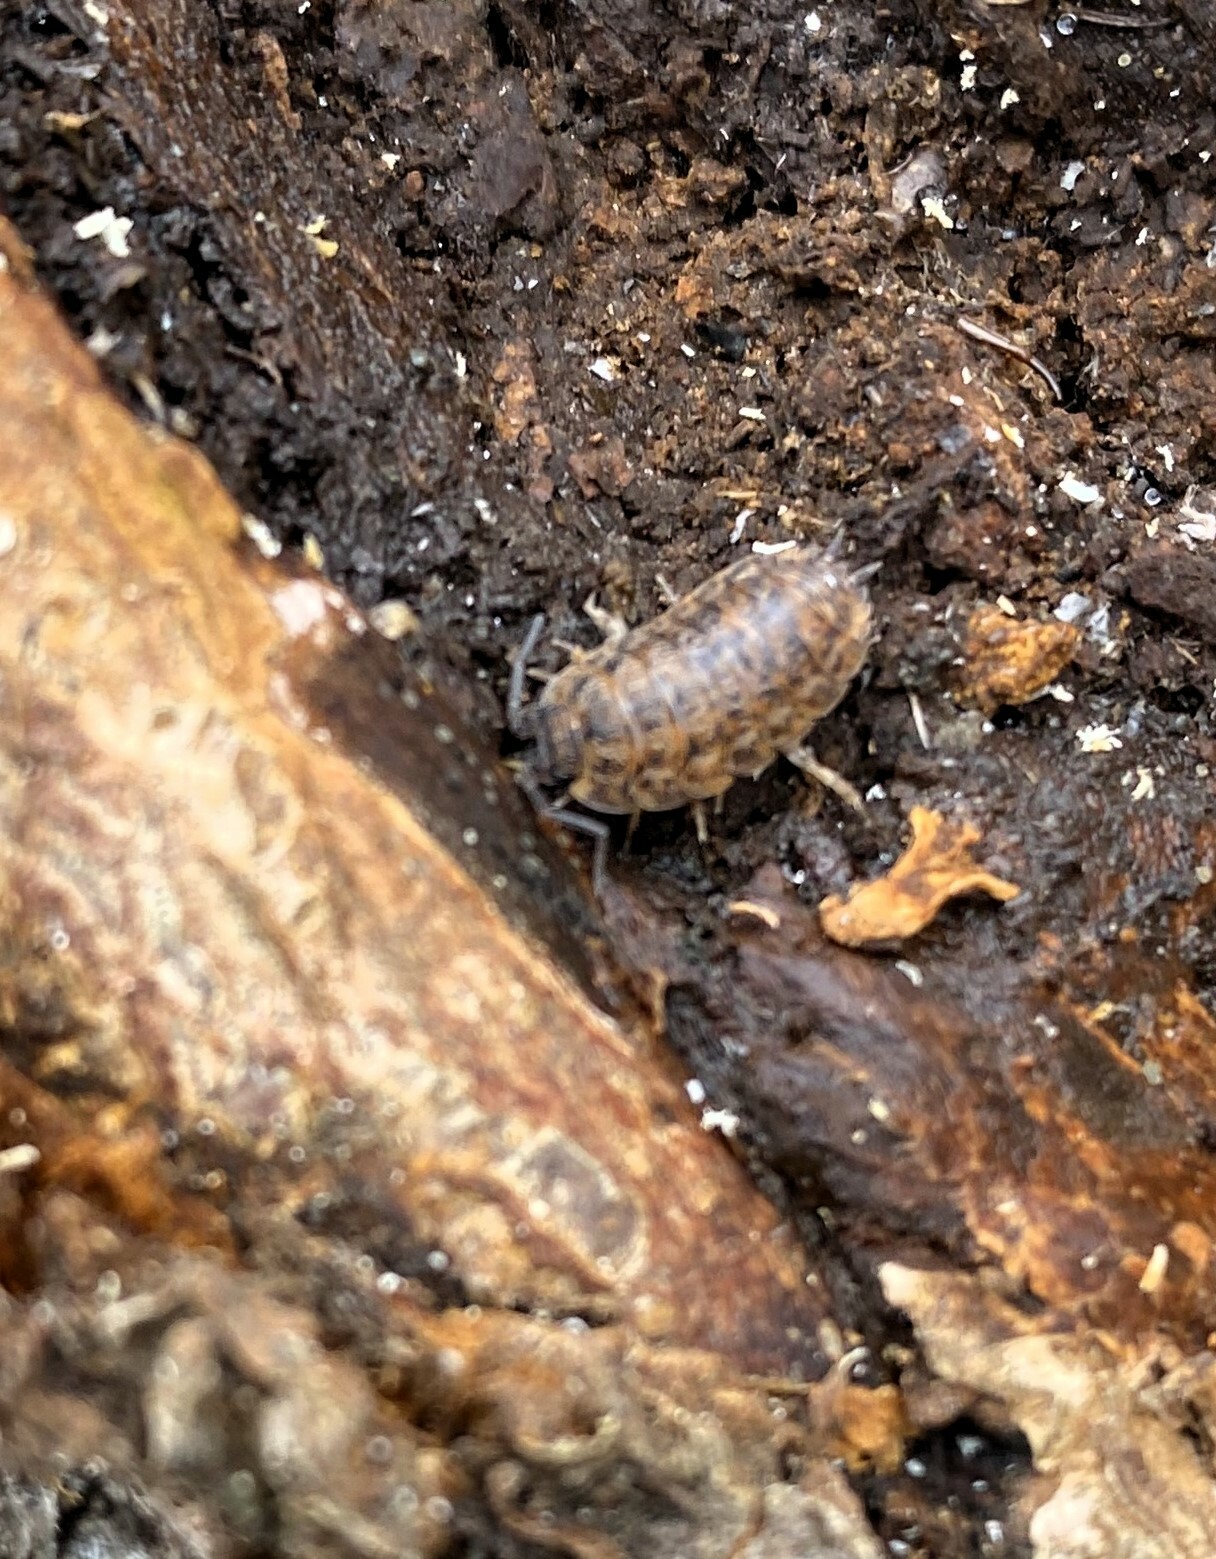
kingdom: Animalia
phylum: Arthropoda
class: Malacostraca
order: Isopoda
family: Trachelipodidae
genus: Trachelipus
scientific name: Trachelipus rathkii
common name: Isopod
